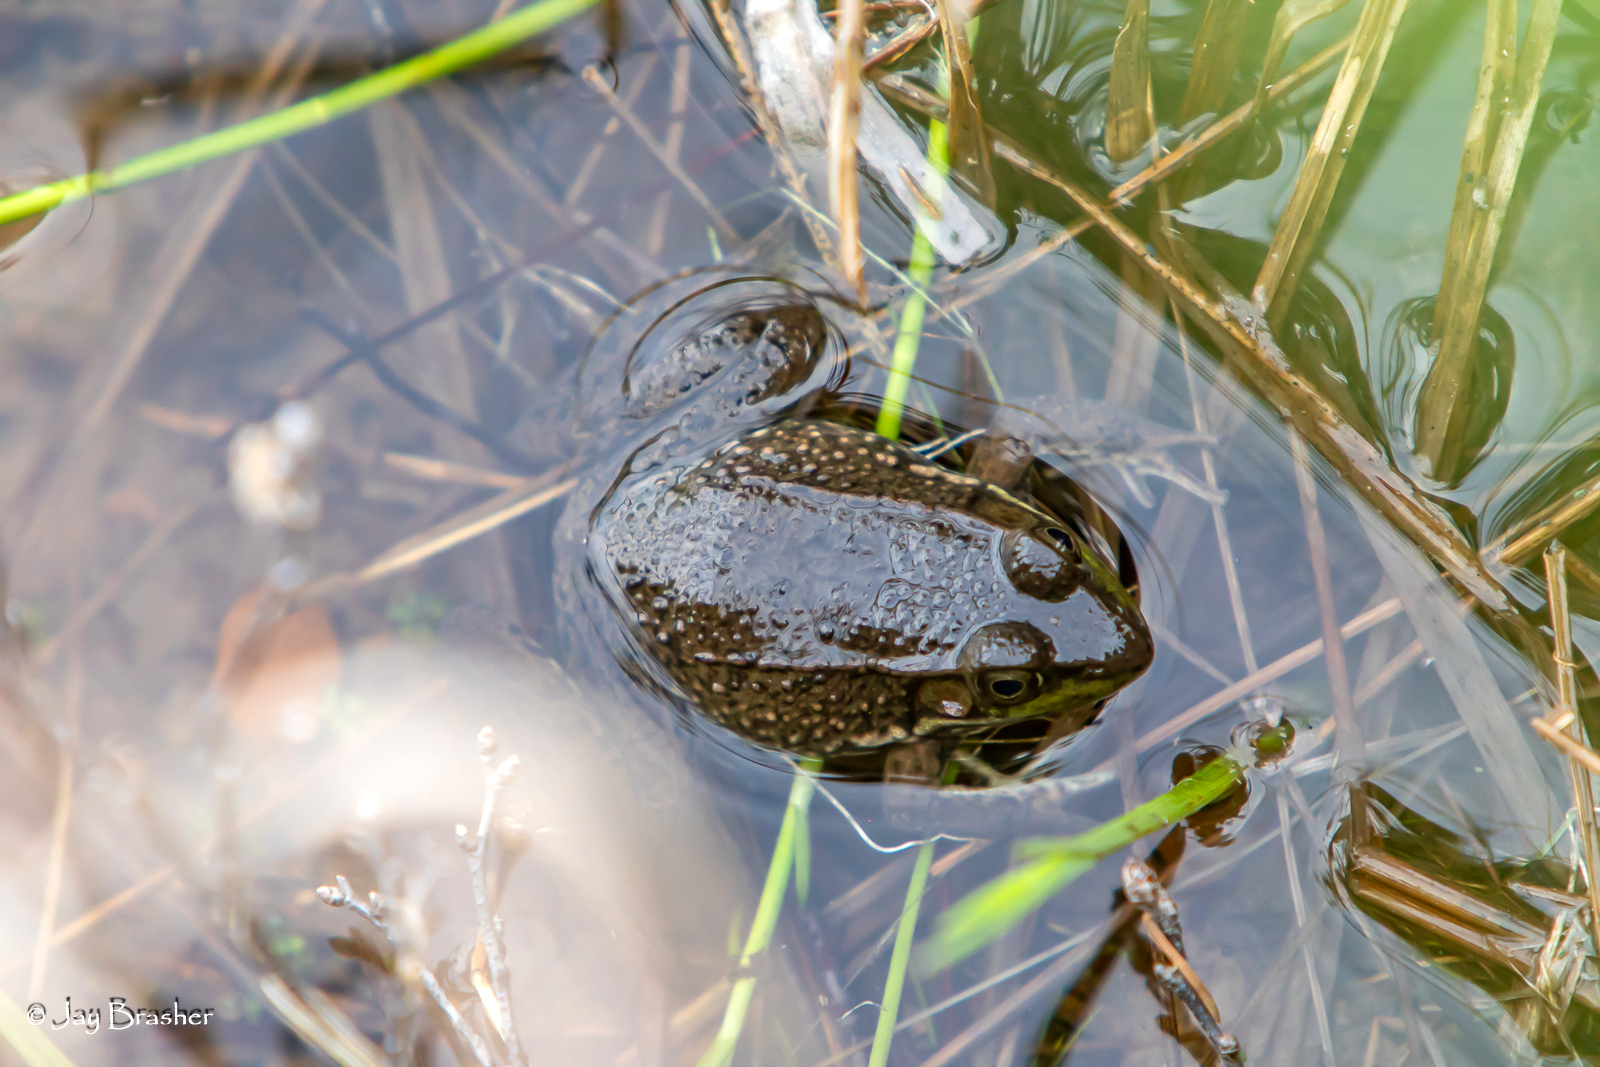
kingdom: Animalia
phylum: Chordata
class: Amphibia
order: Anura
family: Ranidae
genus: Lithobates
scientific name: Lithobates clamitans
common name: Green frog
